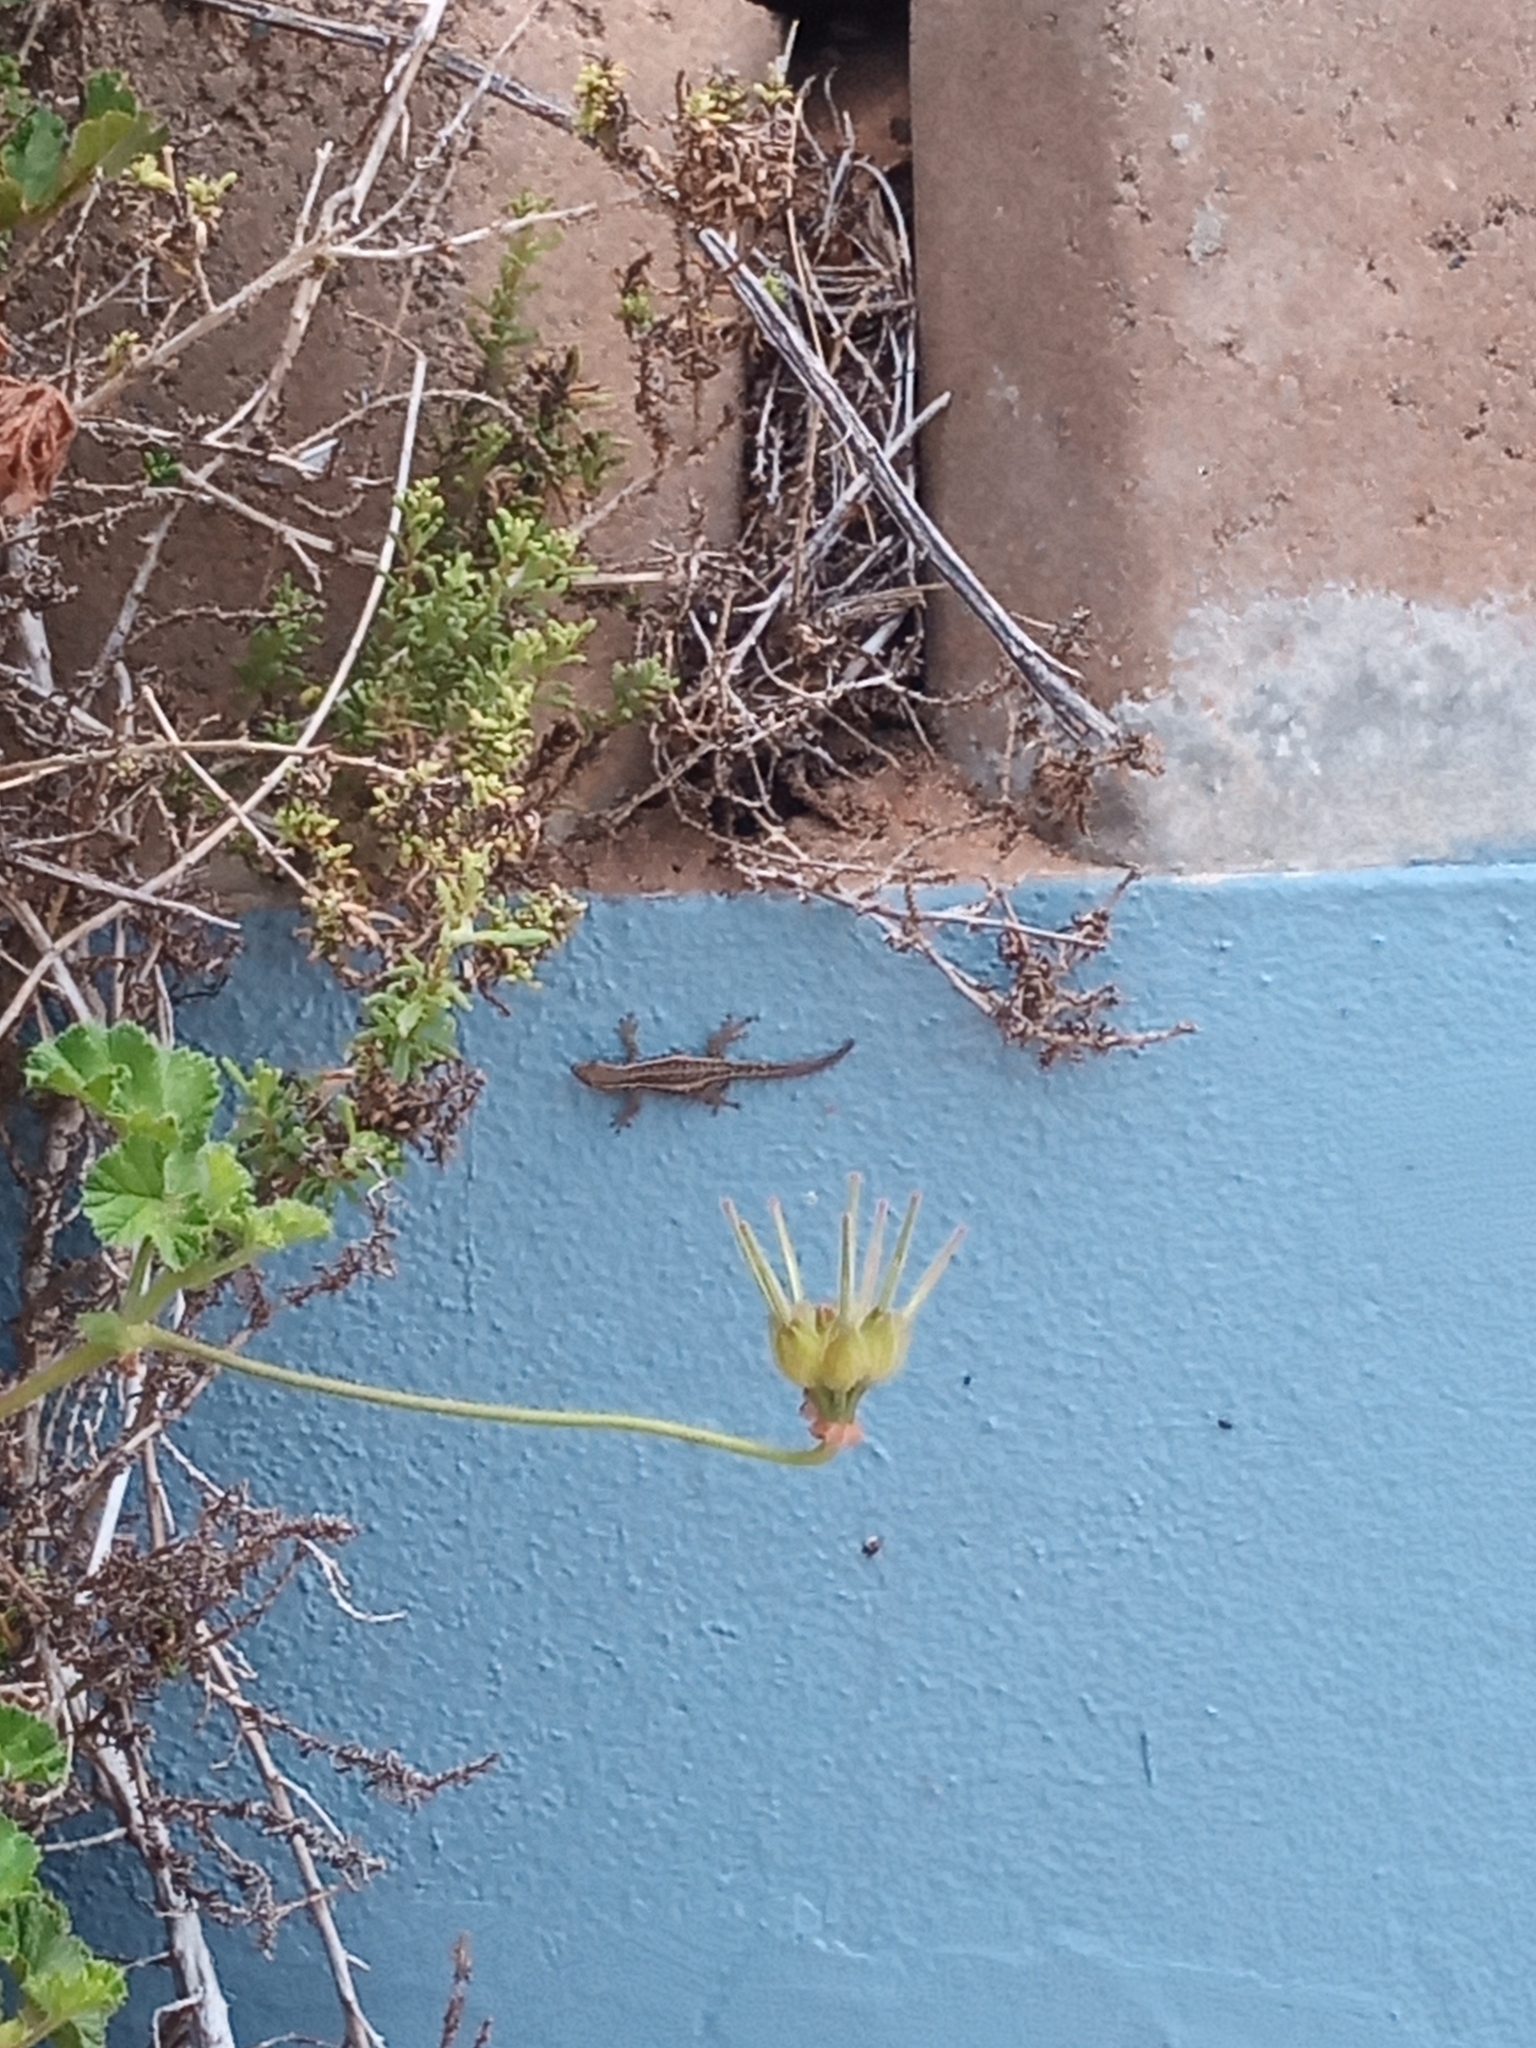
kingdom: Animalia
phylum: Chordata
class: Squamata
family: Gekkonidae
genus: Lygodactylus
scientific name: Lygodactylus capensis
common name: Cape dwarf gecko
